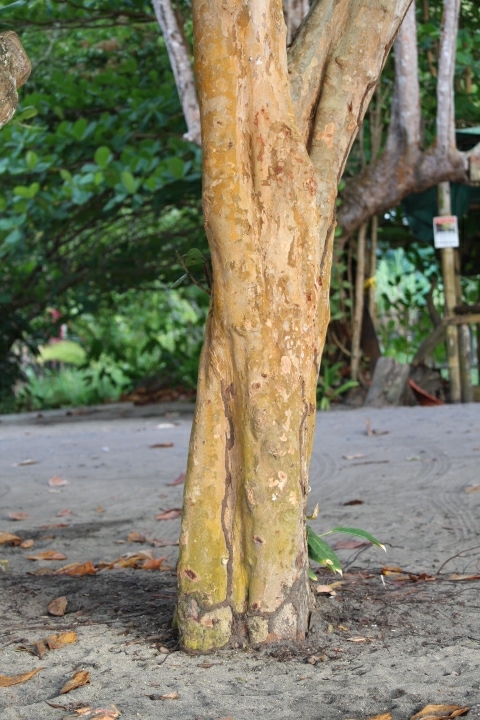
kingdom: Plantae
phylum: Tracheophyta
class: Magnoliopsida
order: Caryophyllales
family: Polygonaceae
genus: Coccoloba
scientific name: Coccoloba uvifera
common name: Seagrape
